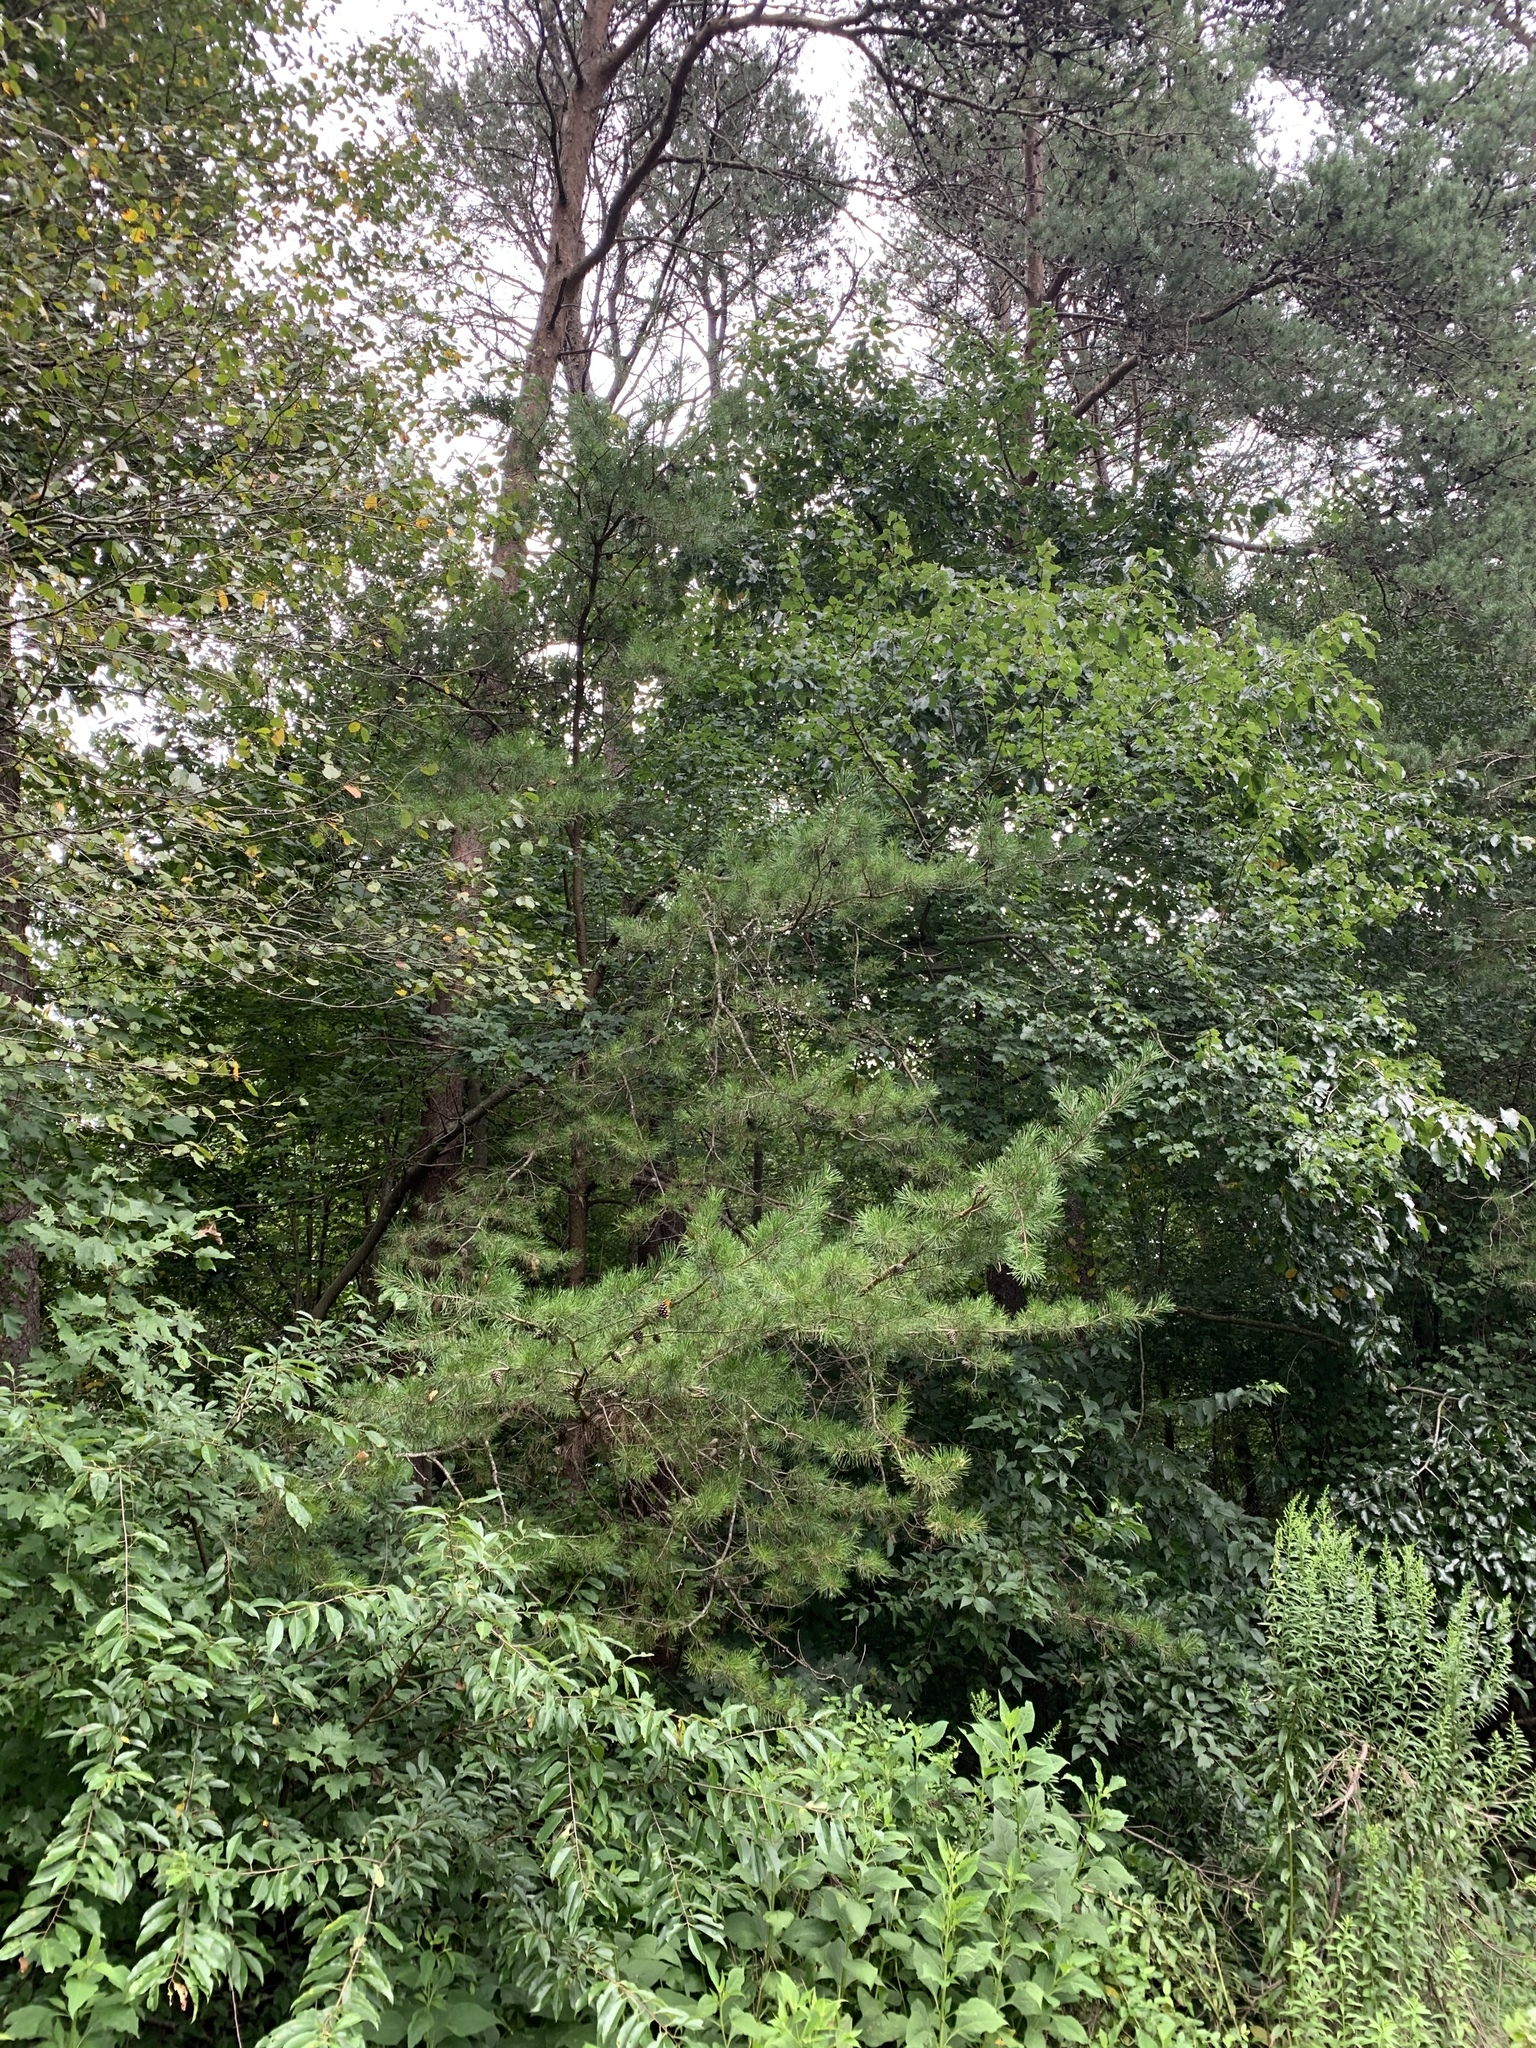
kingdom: Plantae
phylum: Tracheophyta
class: Pinopsida
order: Pinales
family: Pinaceae
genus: Pinus
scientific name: Pinus virginiana
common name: Scrub pine
